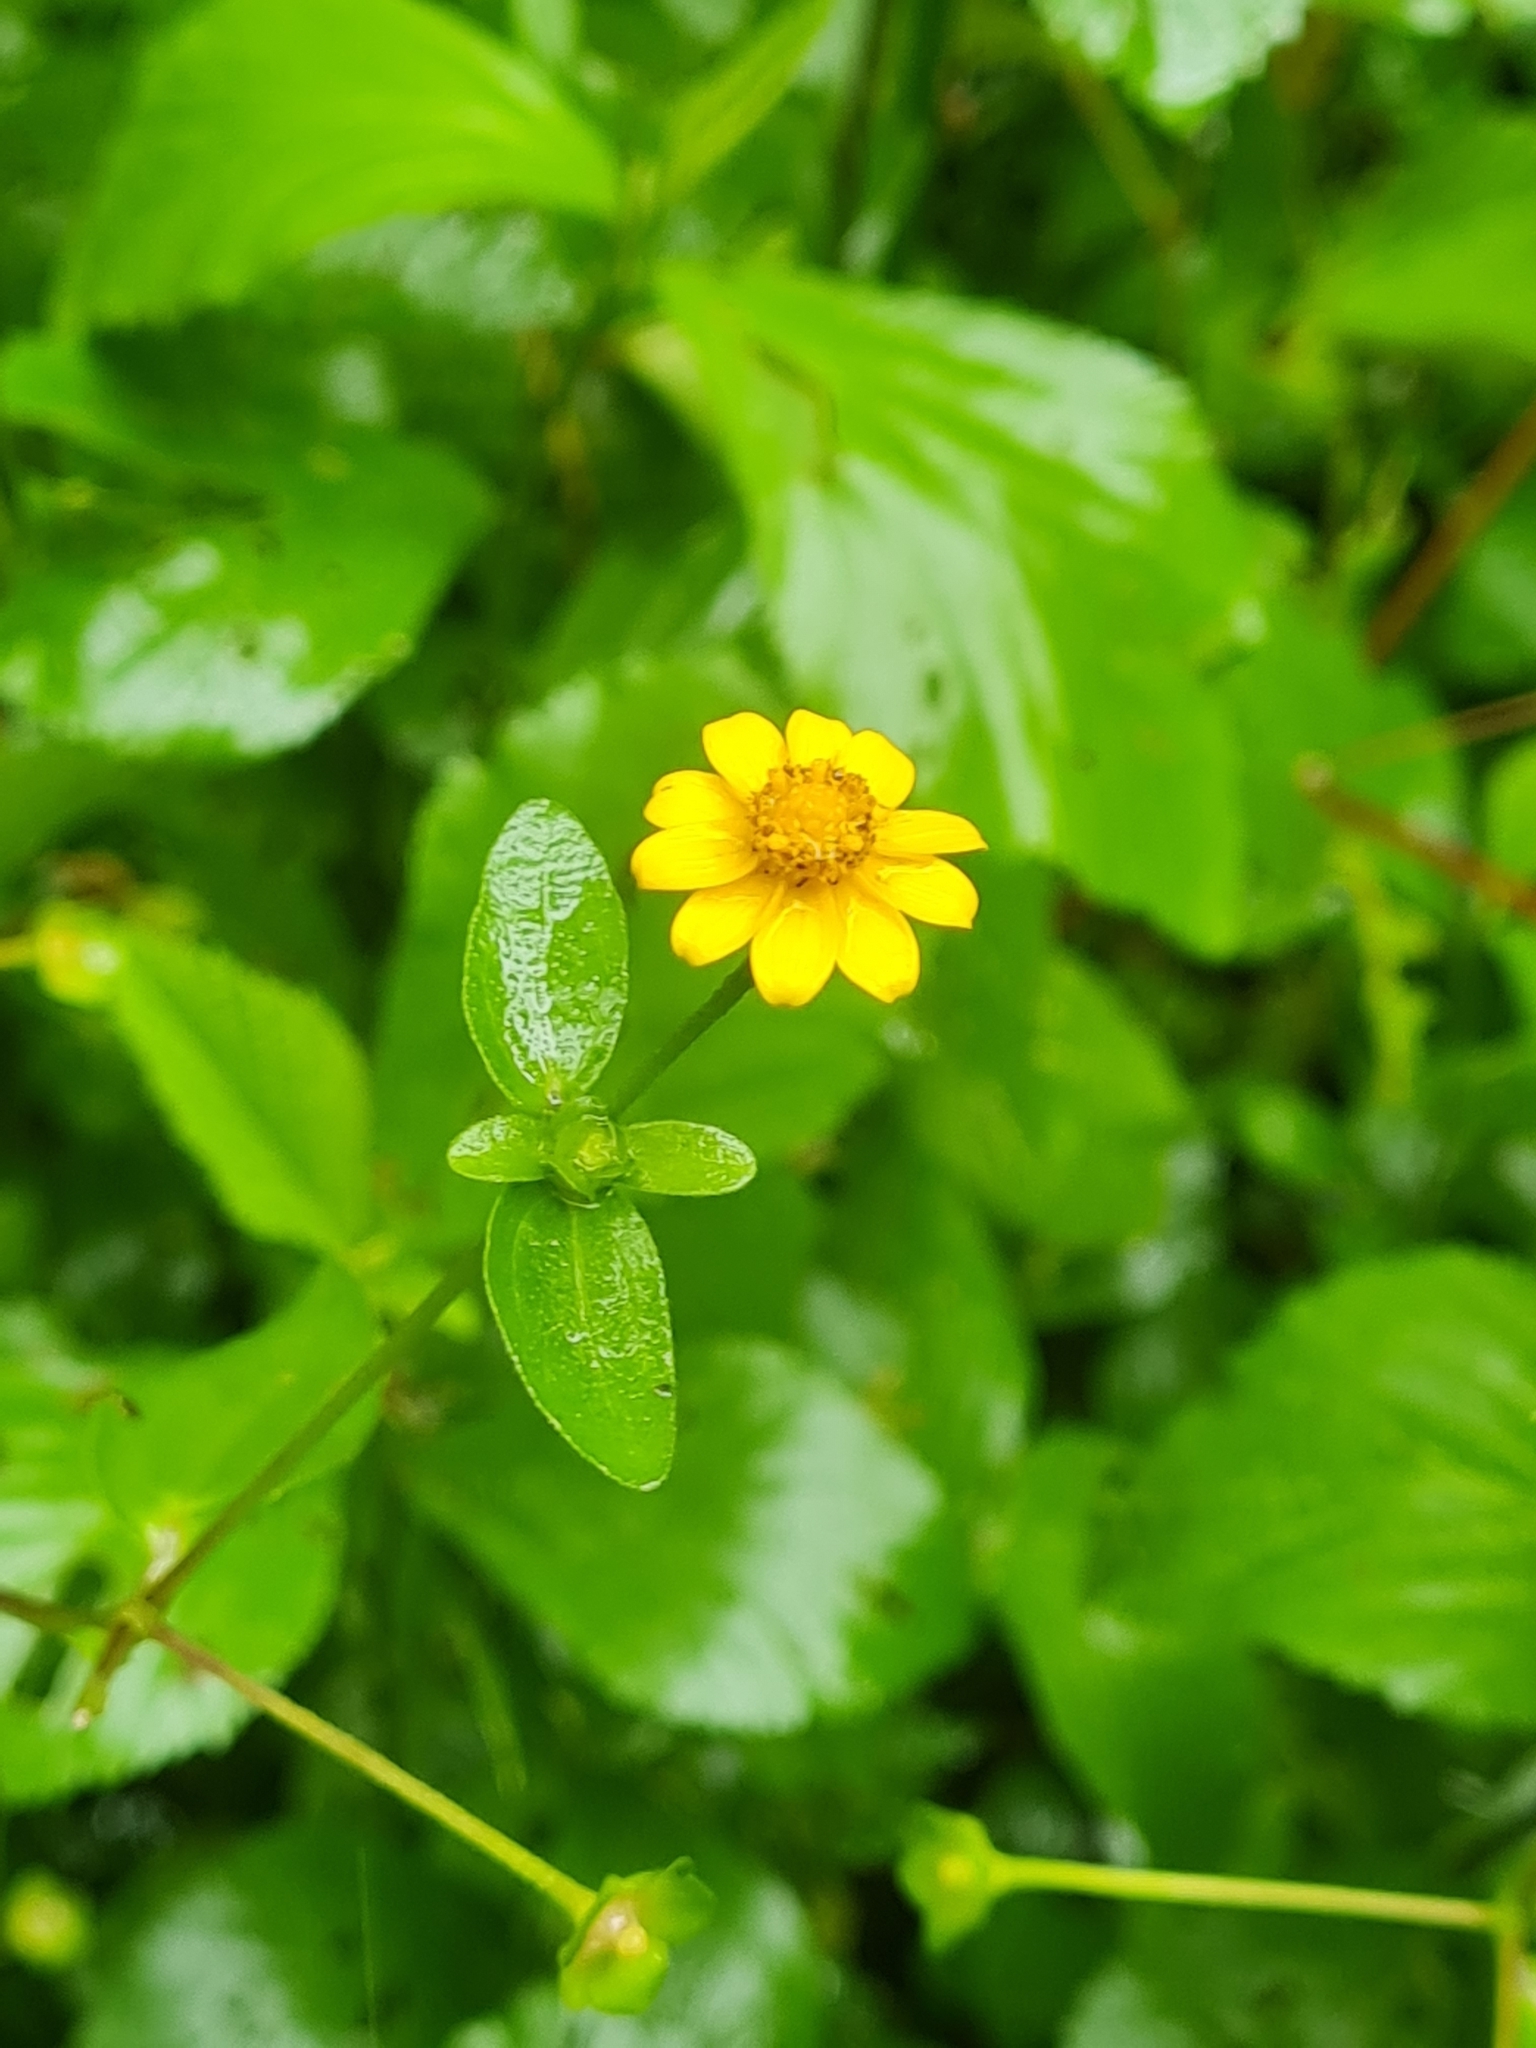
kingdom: Plantae
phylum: Tracheophyta
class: Magnoliopsida
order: Asterales
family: Asteraceae
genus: Melampodium
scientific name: Melampodium divaricatum
